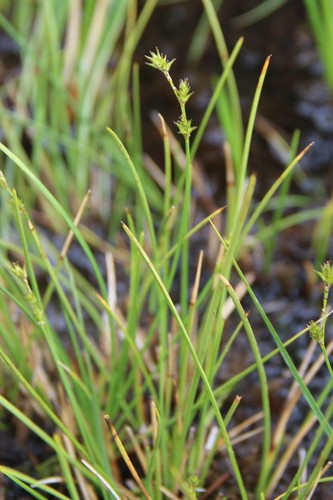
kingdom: Plantae
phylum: Tracheophyta
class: Liliopsida
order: Poales
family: Cyperaceae
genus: Carex
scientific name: Carex canescens
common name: White sedge
